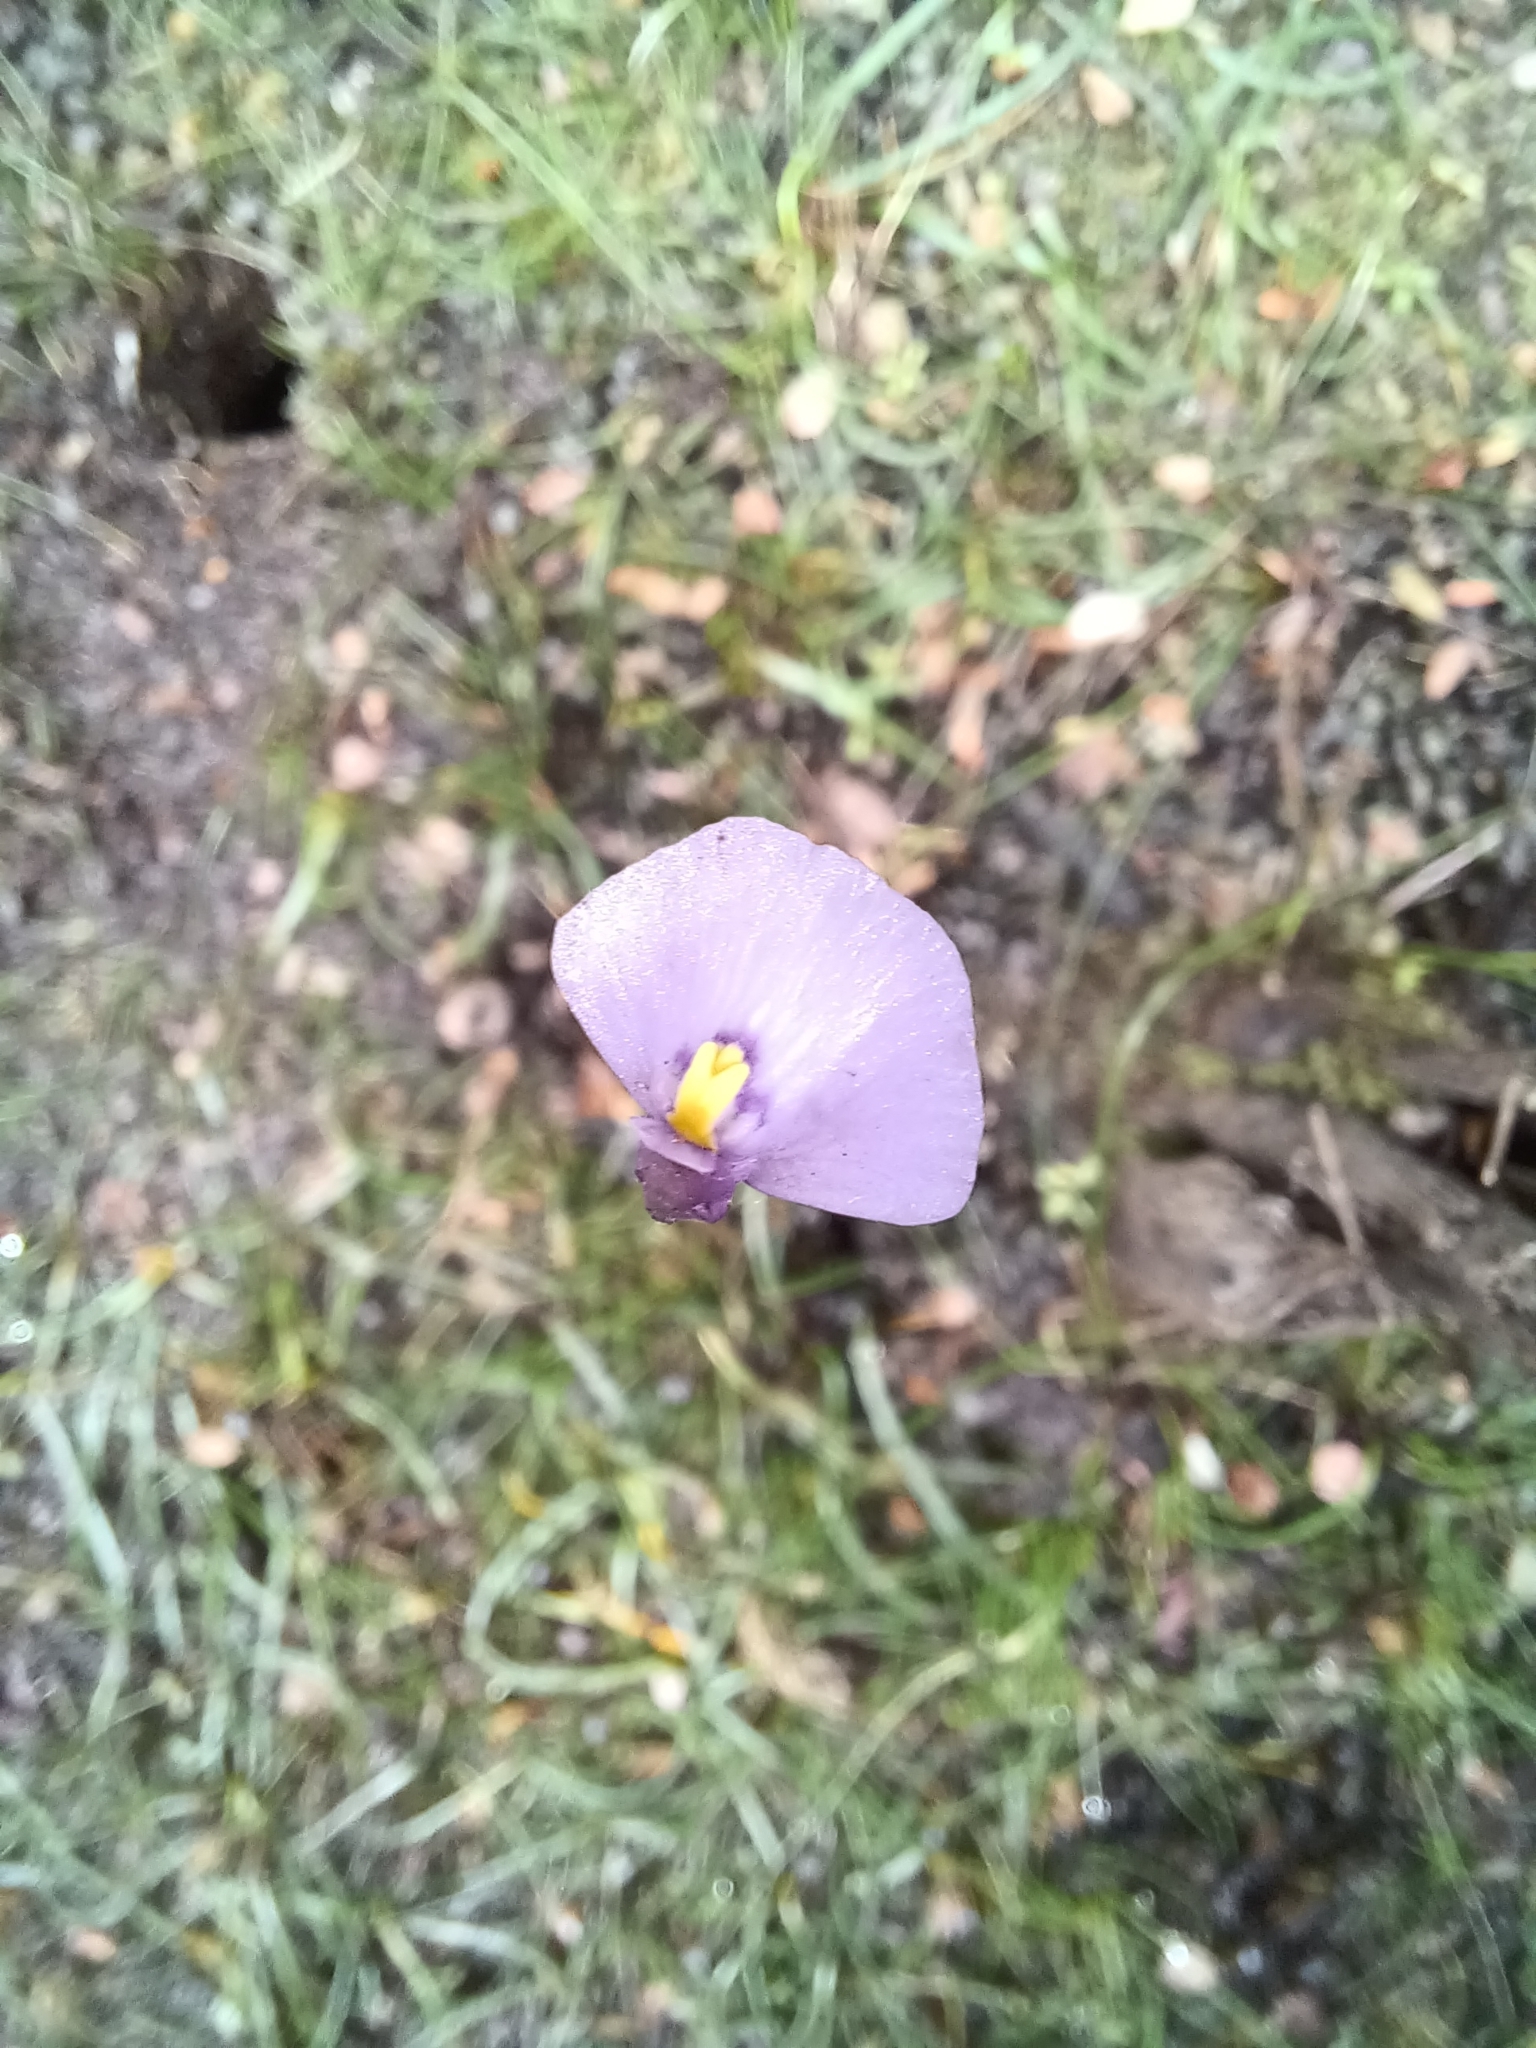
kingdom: Plantae
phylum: Tracheophyta
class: Magnoliopsida
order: Lamiales
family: Lentibulariaceae
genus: Utricularia
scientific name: Utricularia dichotoma
